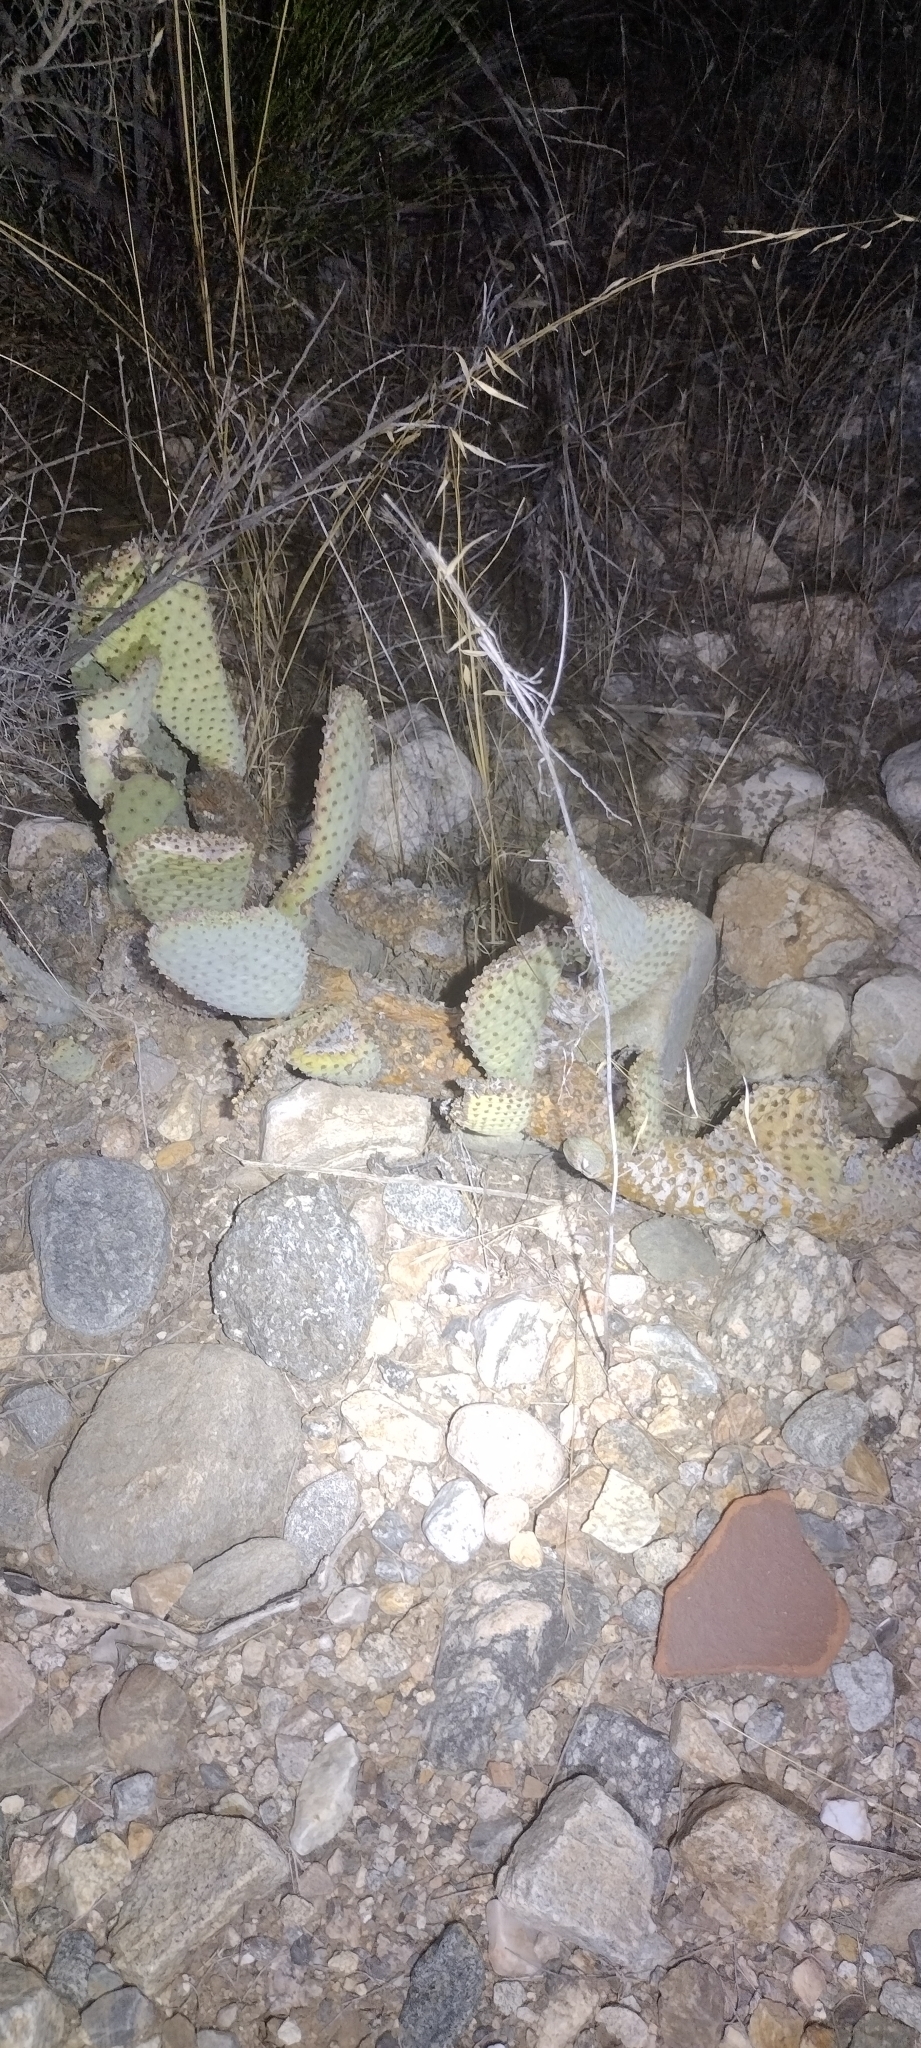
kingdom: Plantae
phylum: Tracheophyta
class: Magnoliopsida
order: Caryophyllales
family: Cactaceae
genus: Opuntia
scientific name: Opuntia basilaris
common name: Beavertail prickly-pear
